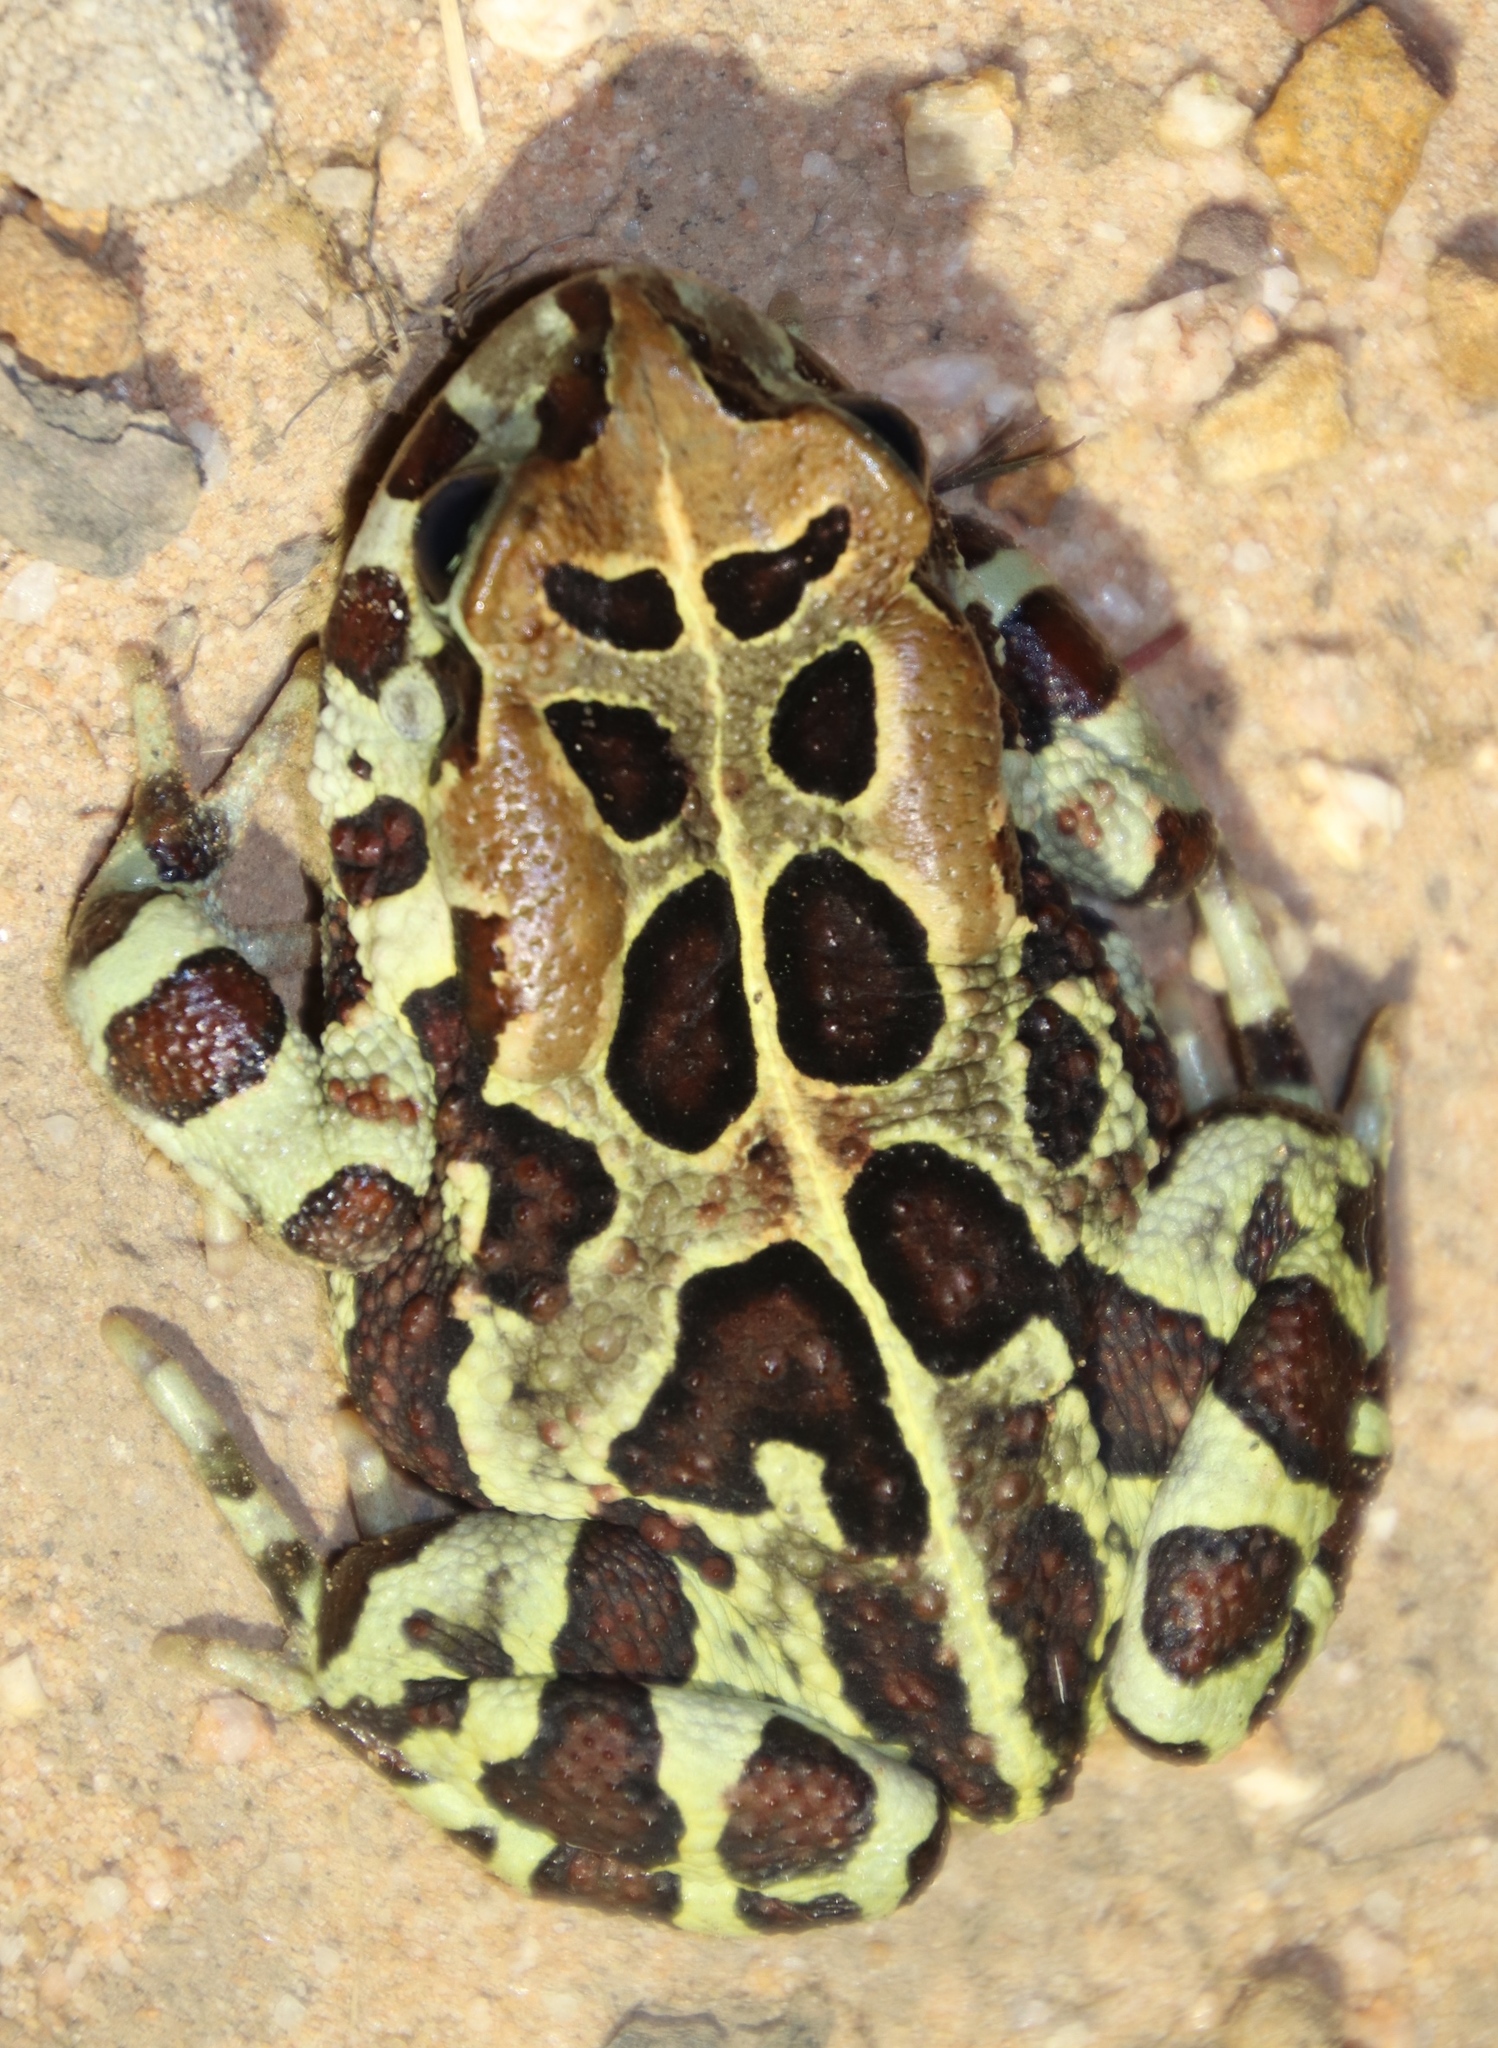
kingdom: Animalia
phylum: Chordata
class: Amphibia
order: Anura
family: Bufonidae
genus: Sclerophrys
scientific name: Sclerophrys pantherina
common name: Panther toad
